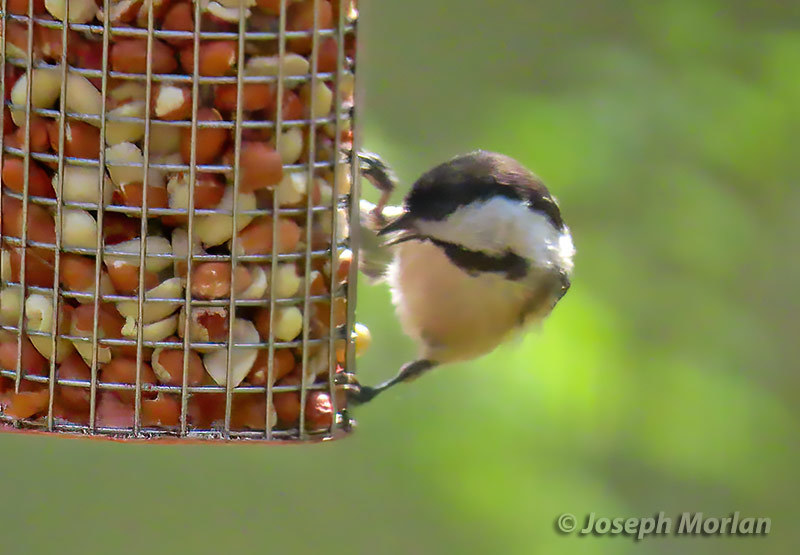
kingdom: Animalia
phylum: Chordata
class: Aves
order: Passeriformes
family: Paridae
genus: Poecile
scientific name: Poecile atricapillus
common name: Black-capped chickadee
